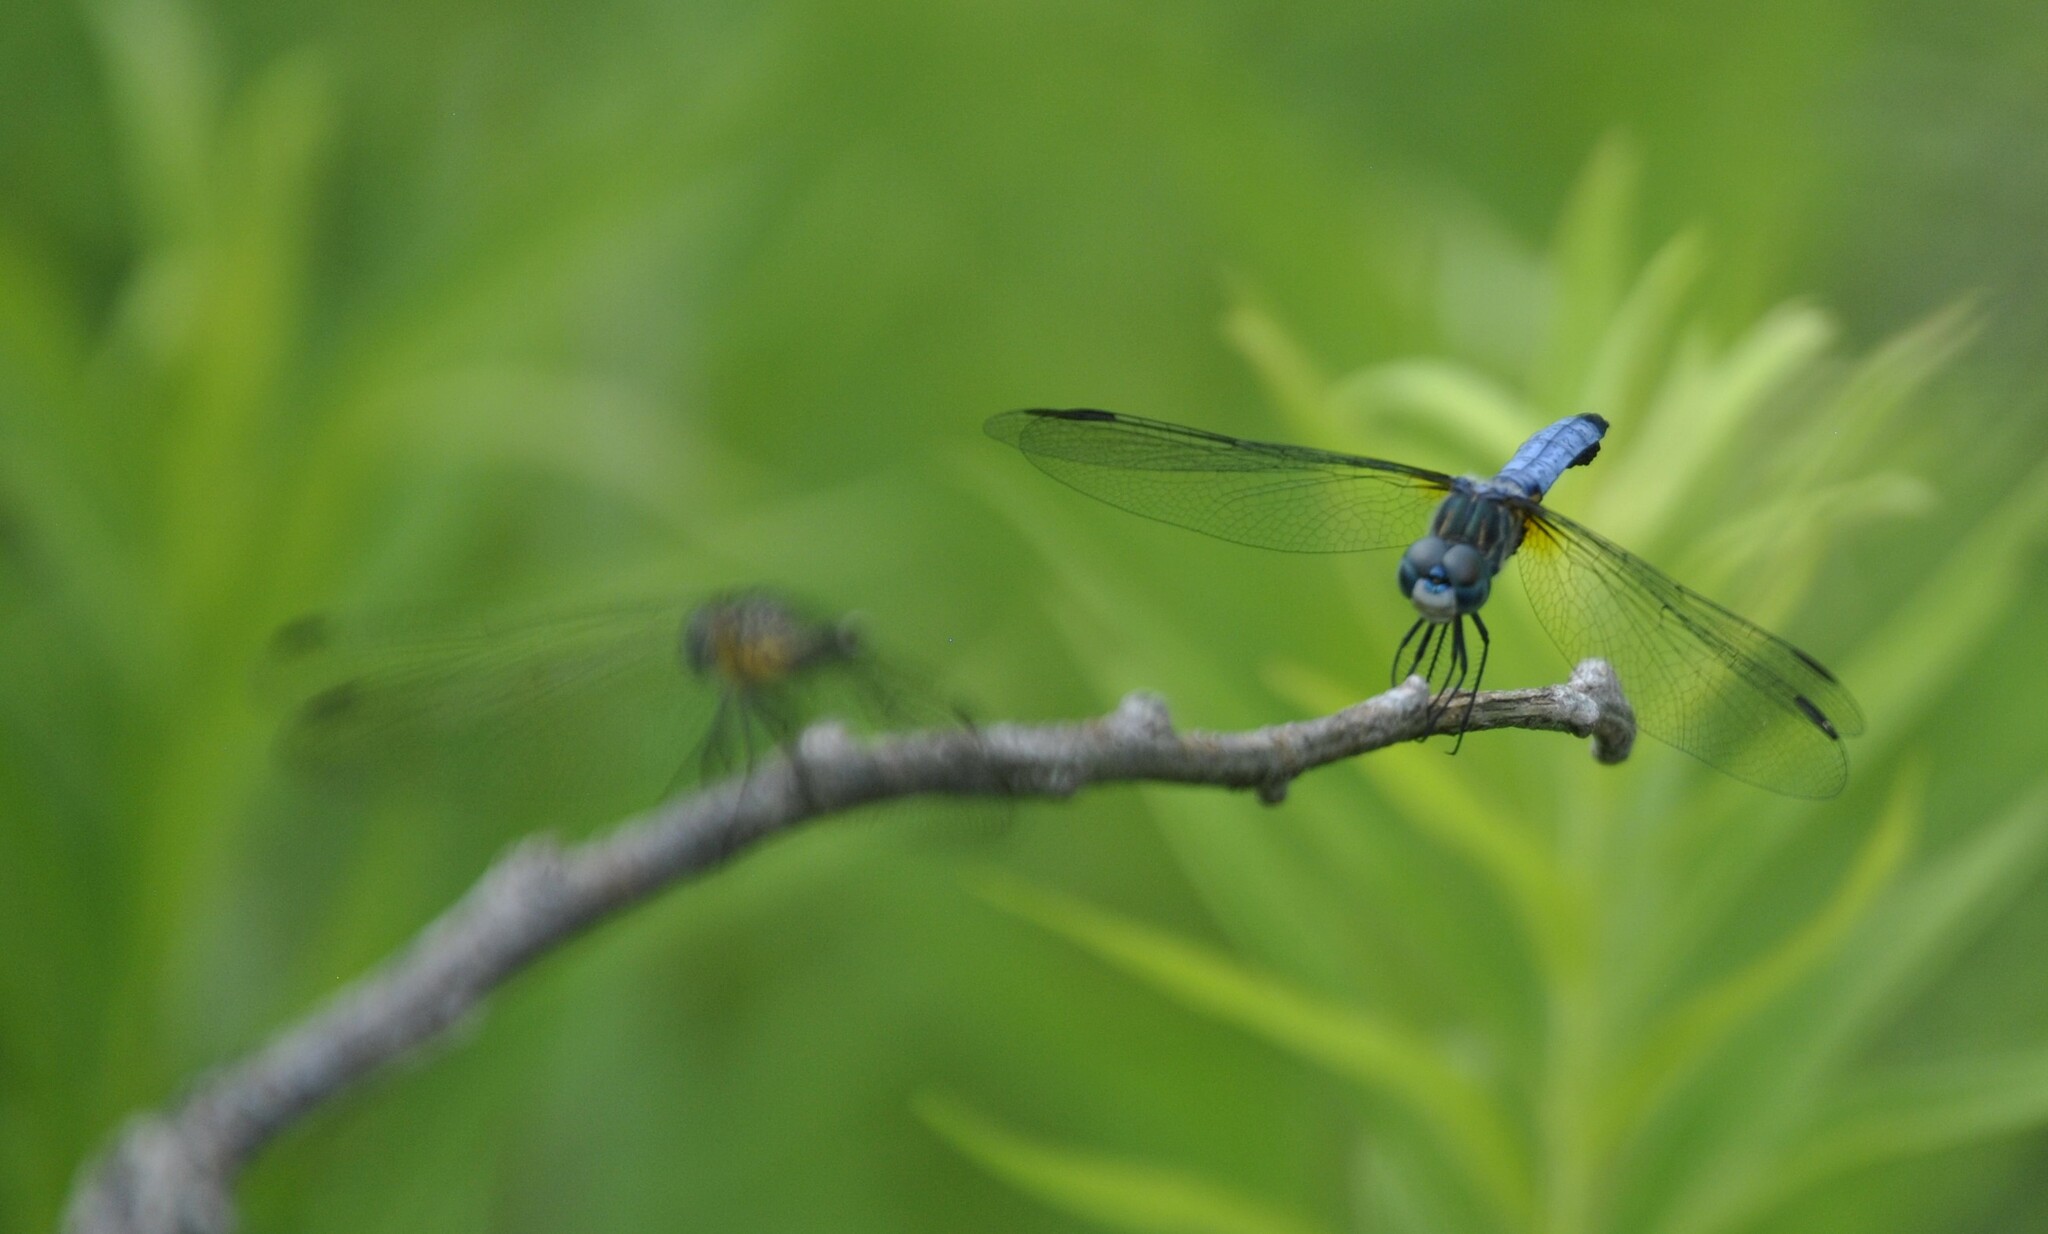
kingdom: Animalia
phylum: Arthropoda
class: Insecta
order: Odonata
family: Libellulidae
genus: Pachydiplax
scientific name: Pachydiplax longipennis
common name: Blue dasher
